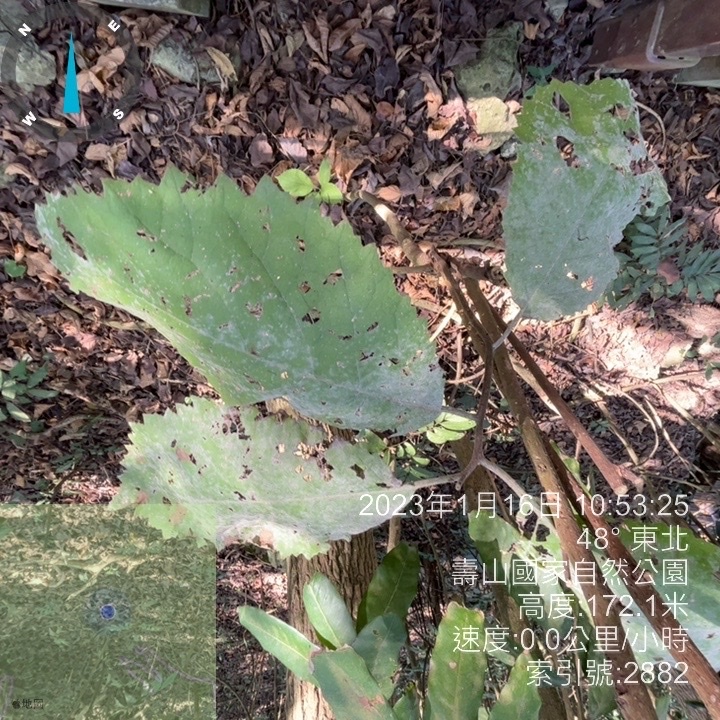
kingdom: Plantae
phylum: Tracheophyta
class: Magnoliopsida
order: Boraginales
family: Ehretiaceae
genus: Ehretia
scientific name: Ehretia dicksonii
